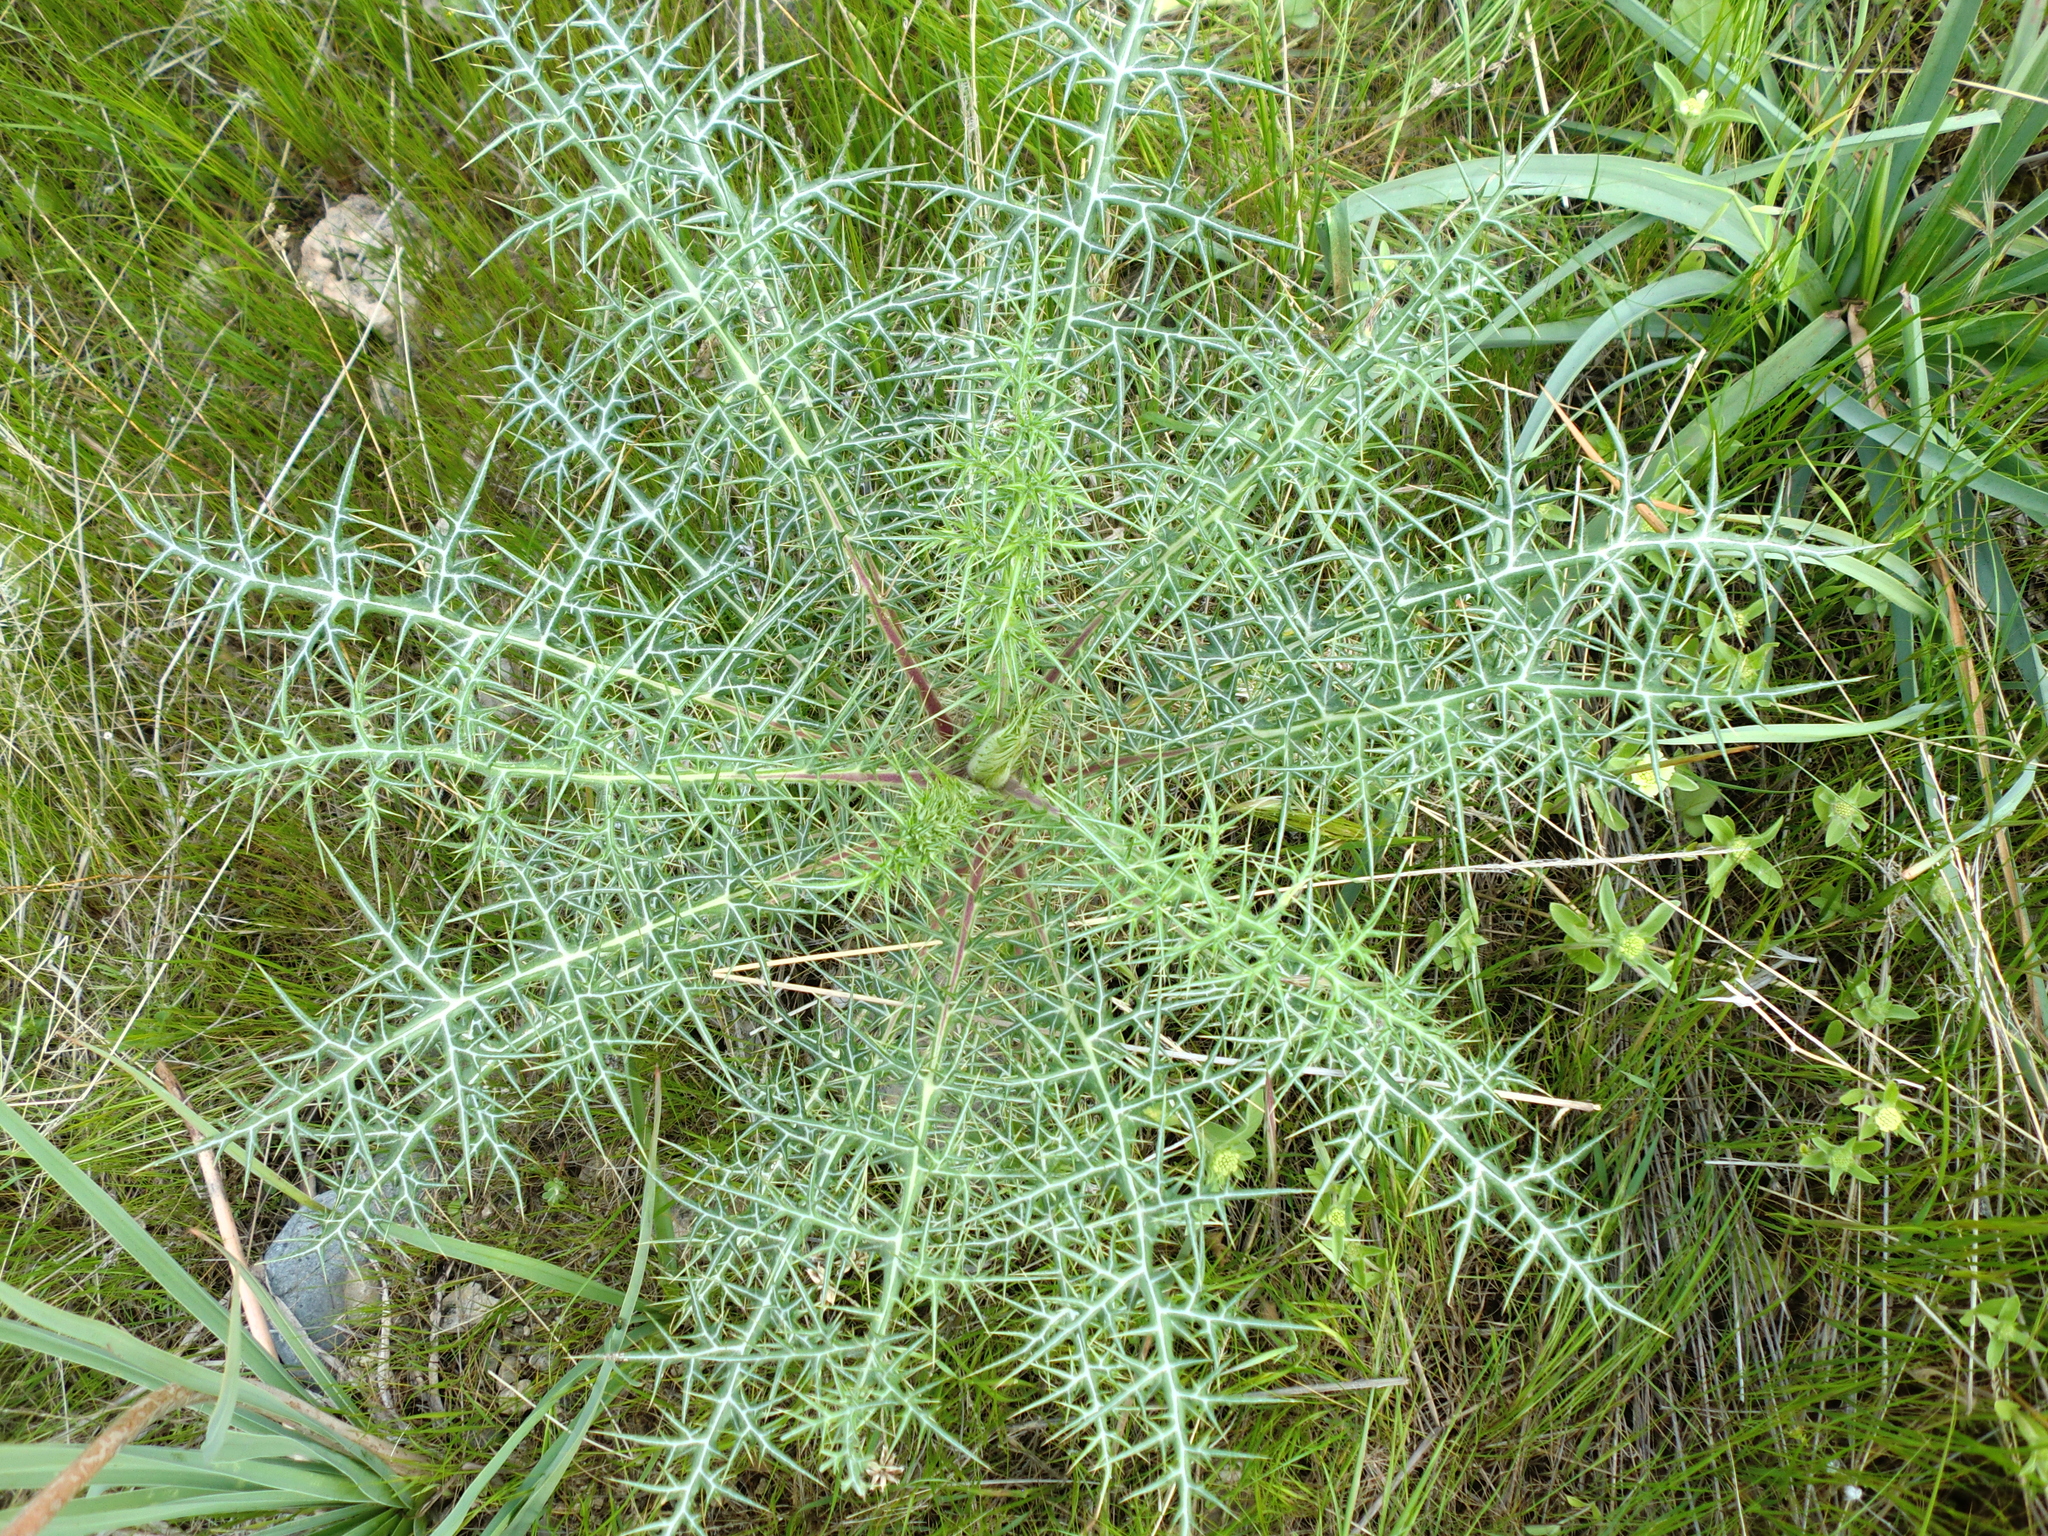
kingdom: Plantae
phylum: Tracheophyta
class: Magnoliopsida
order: Asterales
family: Asteraceae
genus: Echinops
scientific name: Echinops spinosissimus
